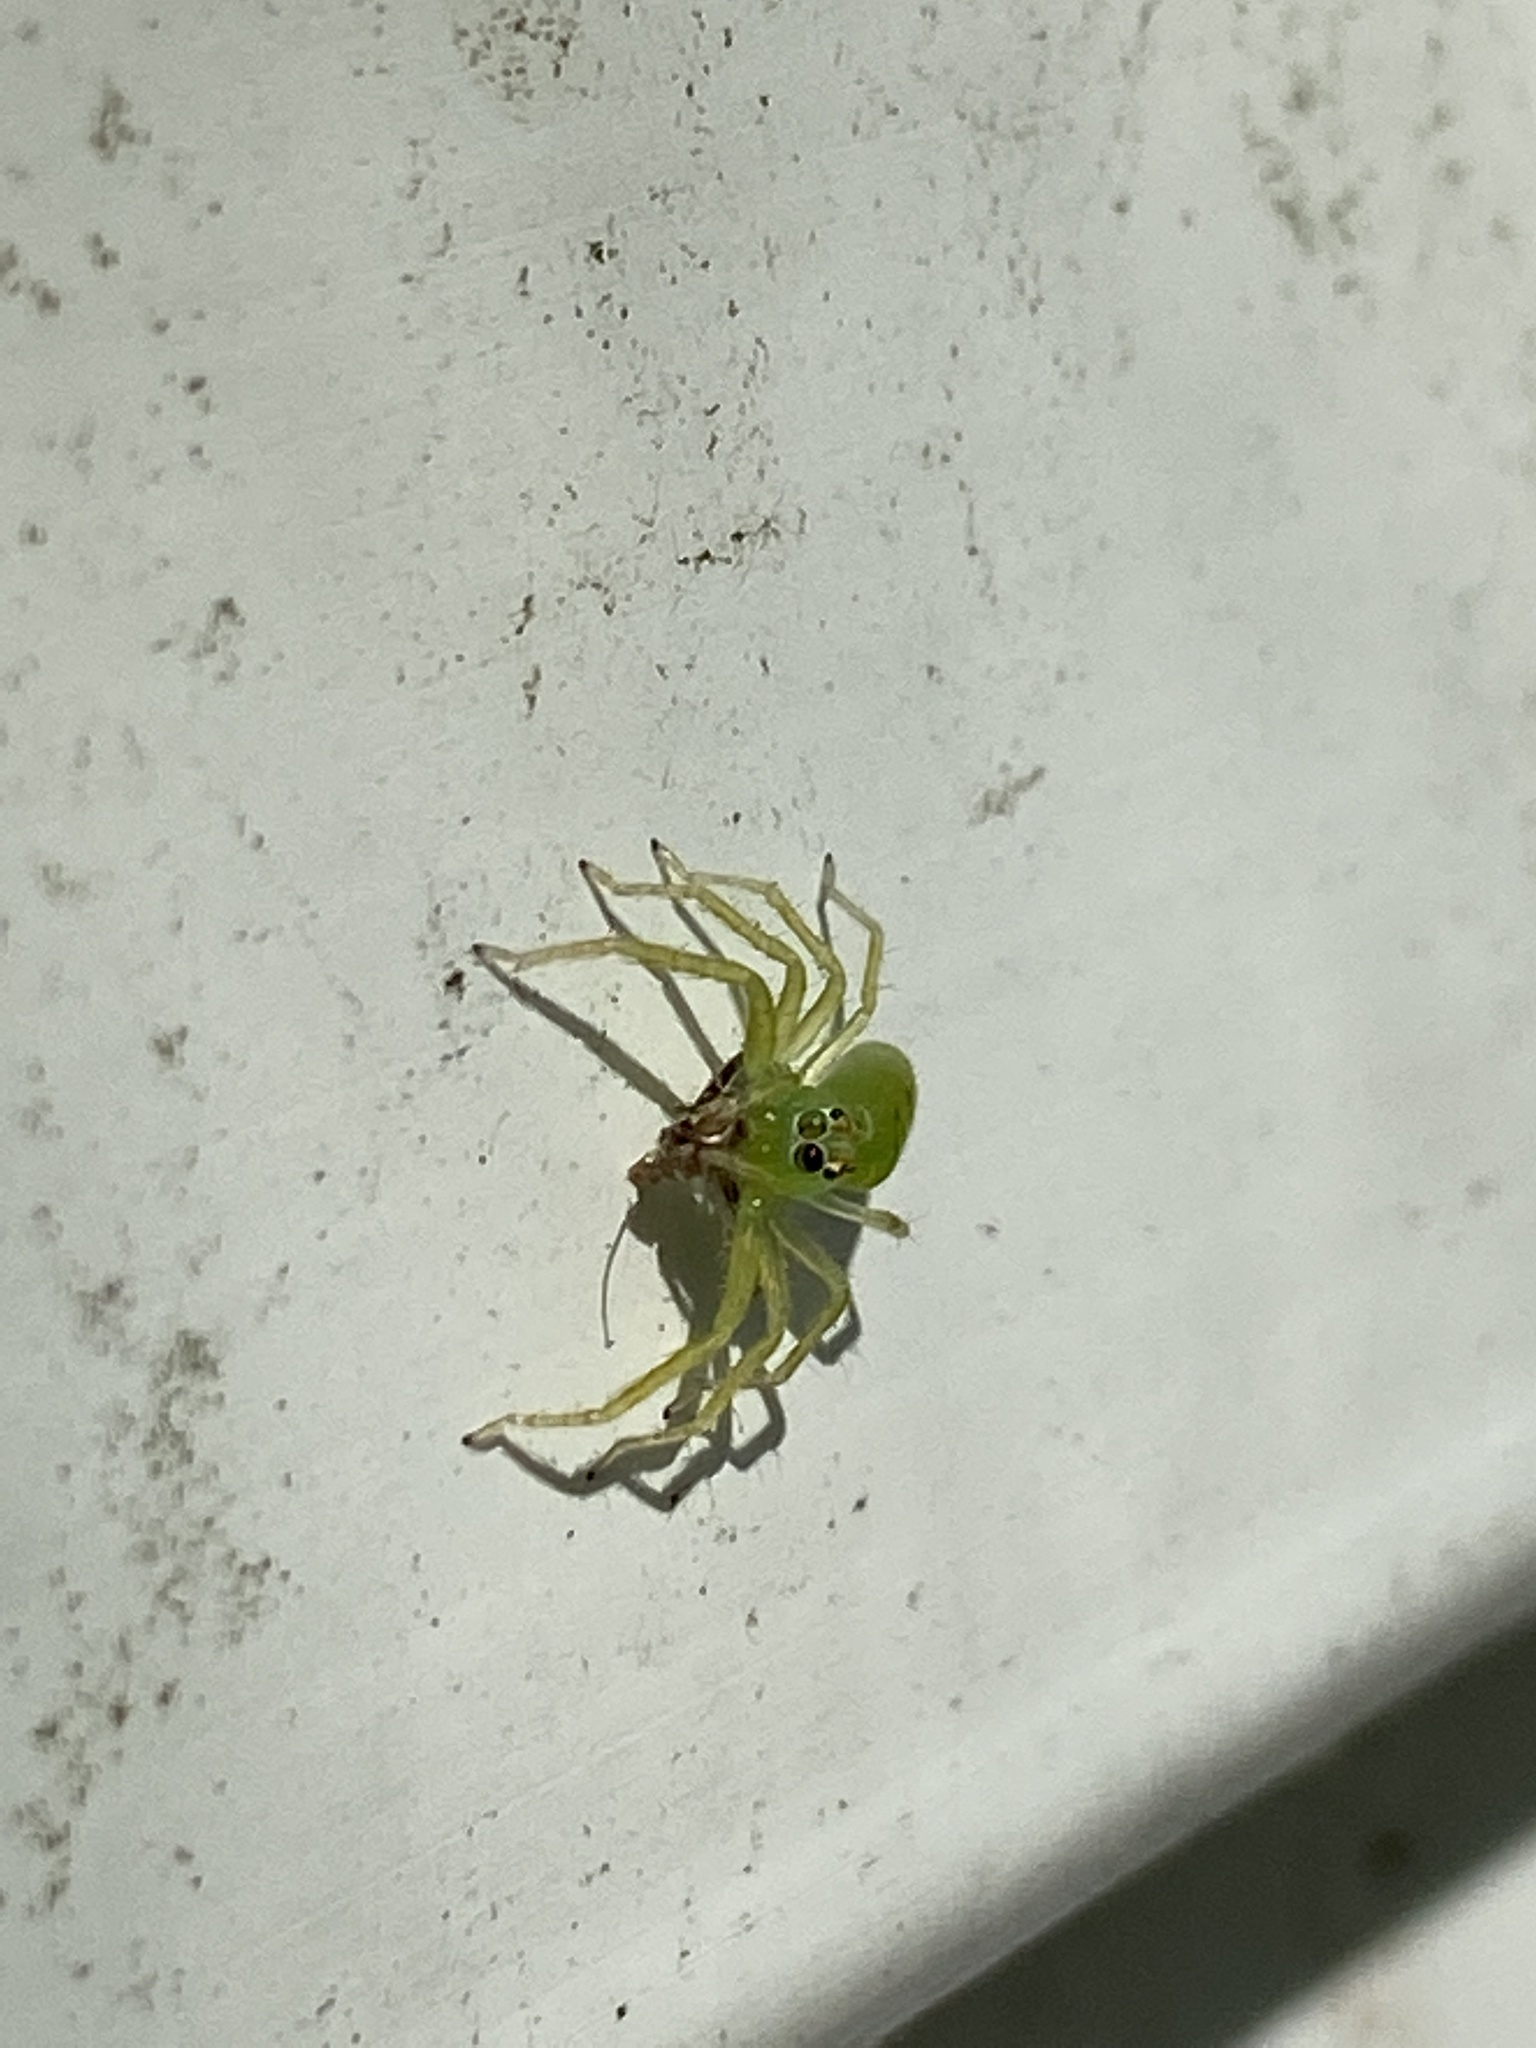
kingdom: Animalia
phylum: Arthropoda
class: Arachnida
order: Araneae
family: Salticidae
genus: Lyssomanes
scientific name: Lyssomanes viridis
